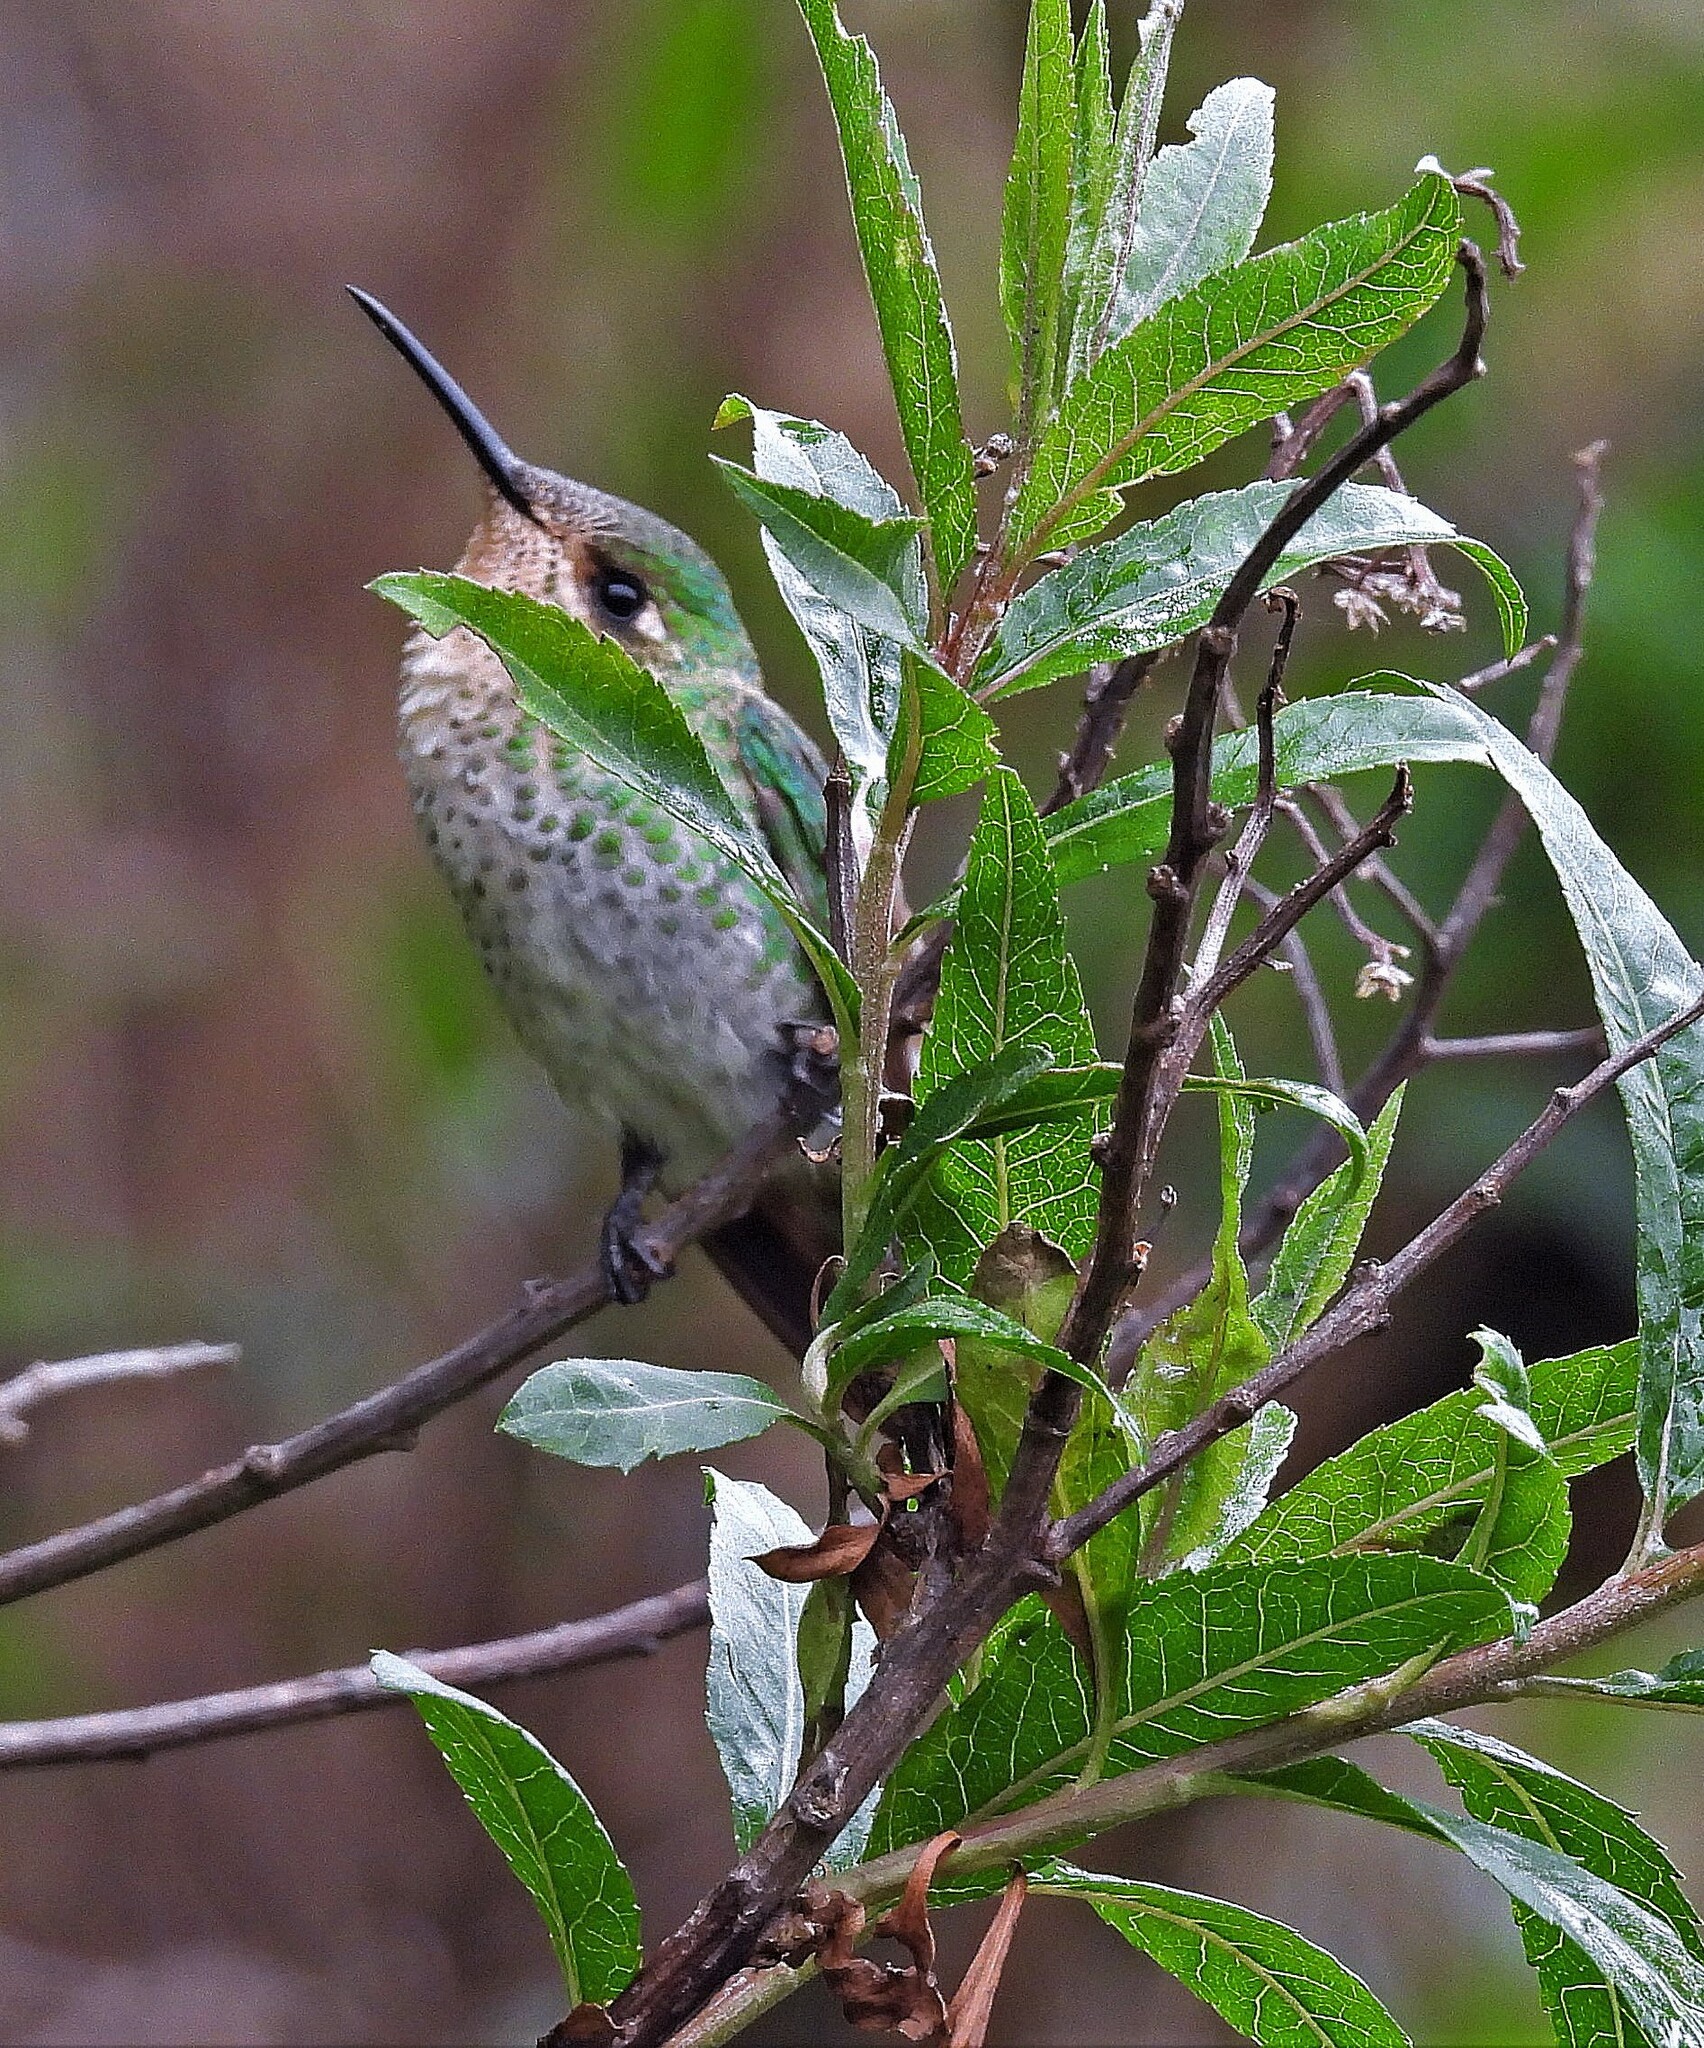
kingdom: Animalia
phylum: Chordata
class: Aves
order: Apodiformes
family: Trochilidae
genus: Sappho
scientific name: Sappho sparganurus
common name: Red-tailed comet
